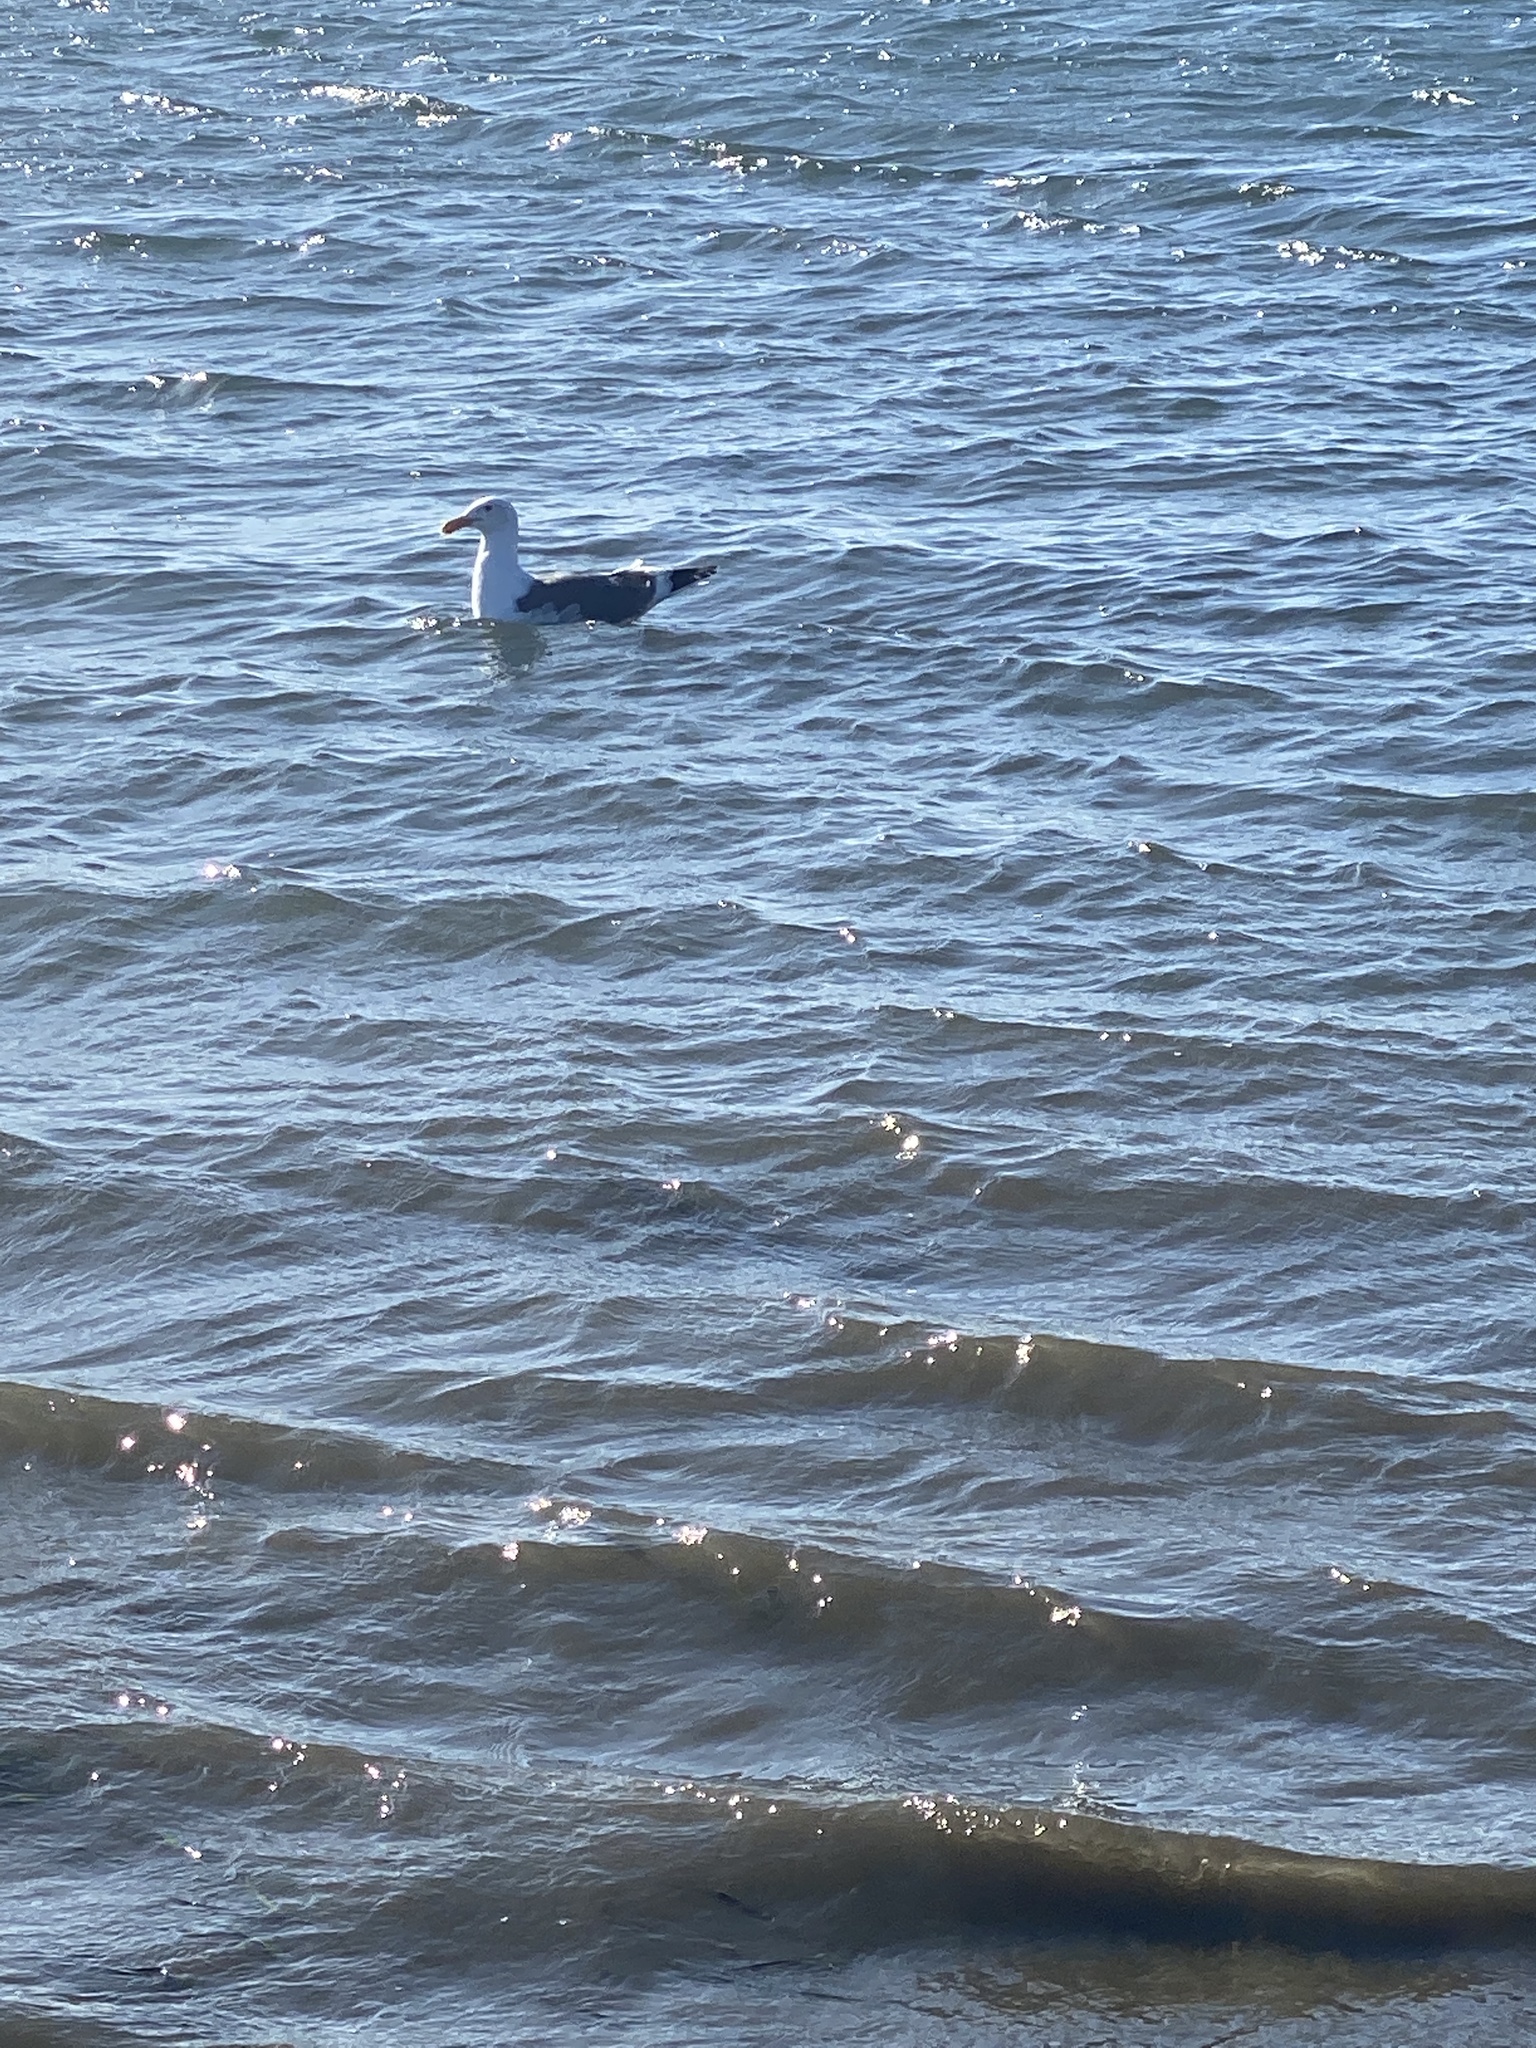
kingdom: Animalia
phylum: Chordata
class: Aves
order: Charadriiformes
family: Laridae
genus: Larus
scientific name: Larus occidentalis
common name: Western gull
